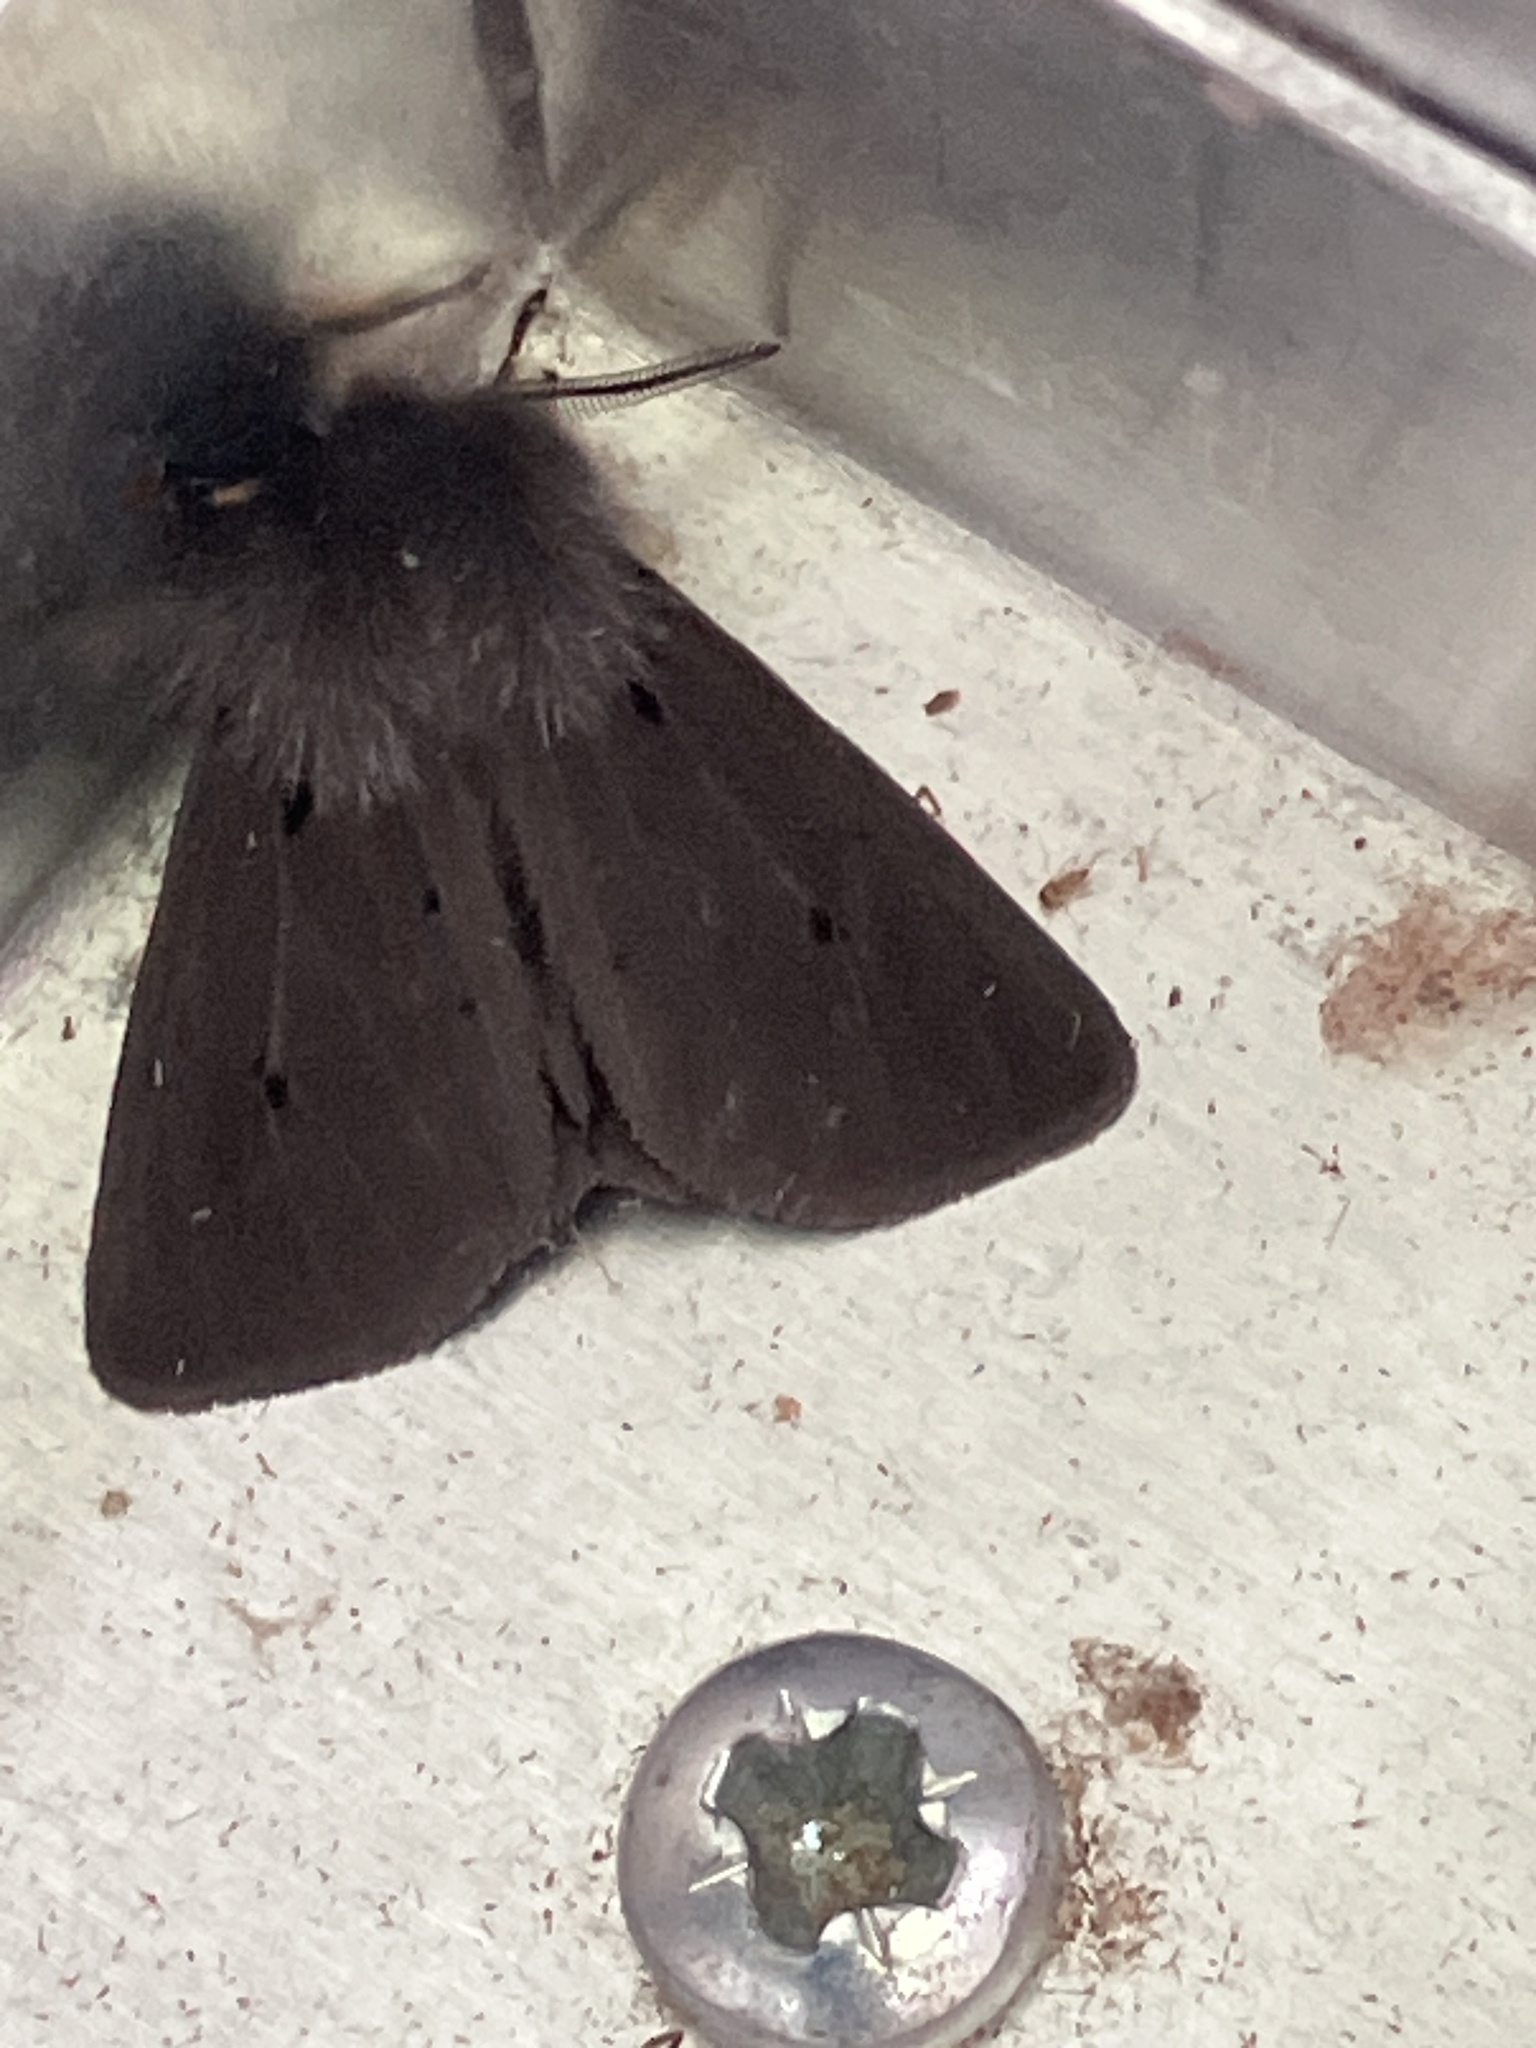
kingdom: Animalia
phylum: Arthropoda
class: Insecta
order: Lepidoptera
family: Erebidae
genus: Diaphora
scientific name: Diaphora mendica
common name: Muslin moth
